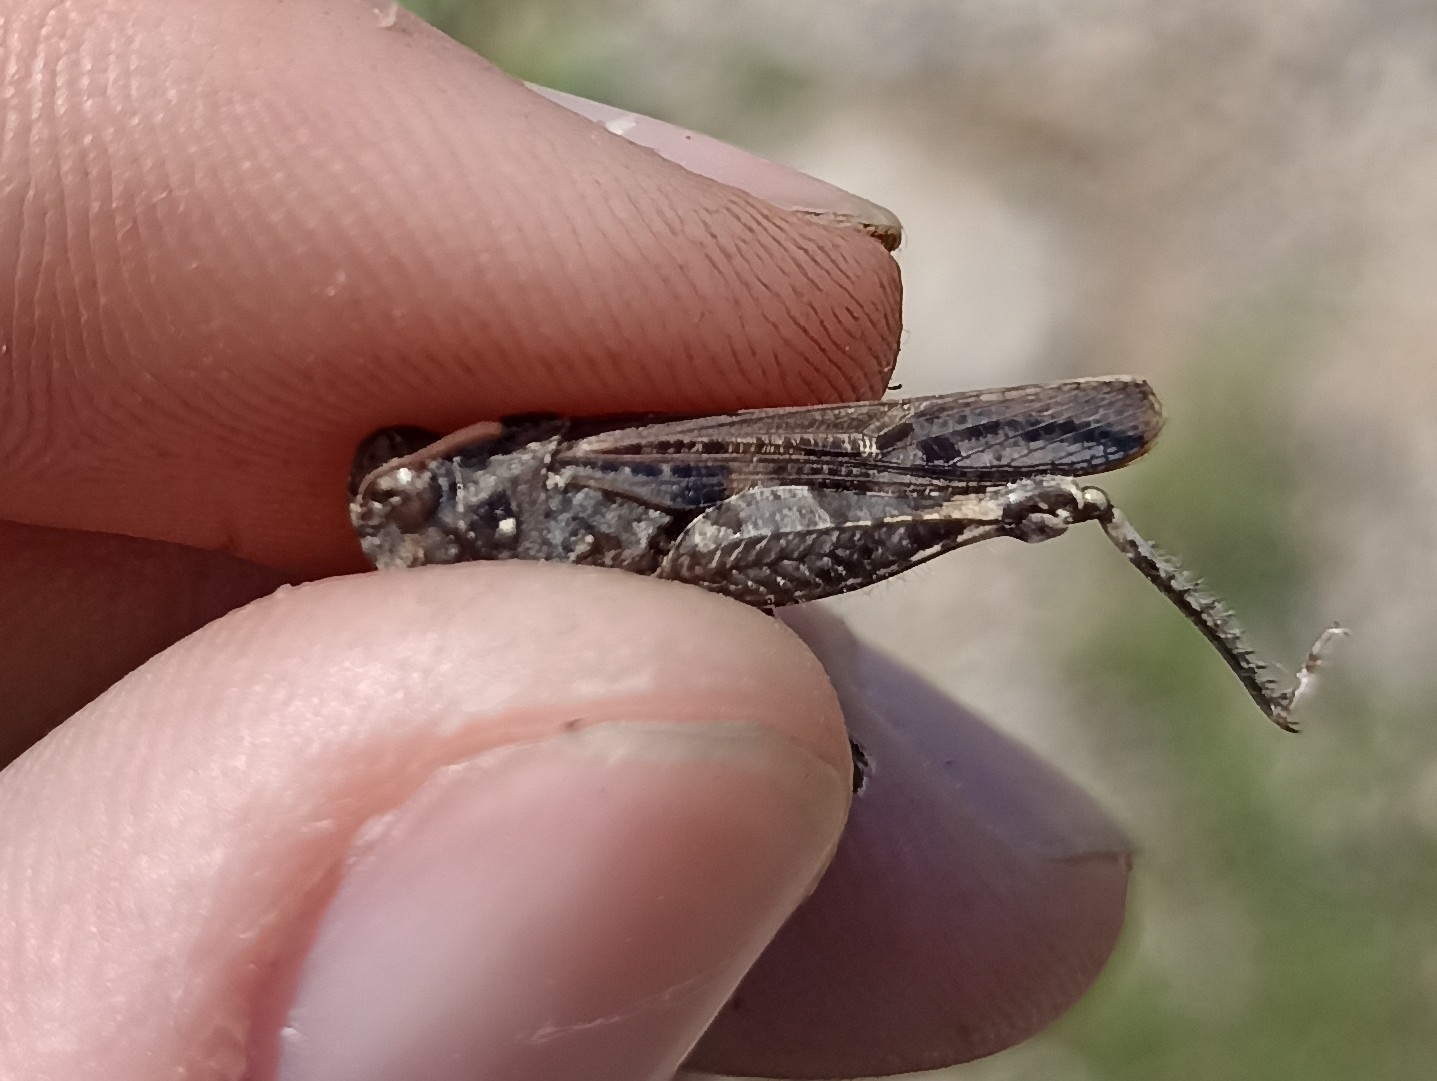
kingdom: Animalia
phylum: Arthropoda
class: Insecta
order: Orthoptera
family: Acrididae
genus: Acrotylus
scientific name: Acrotylus fischeri
